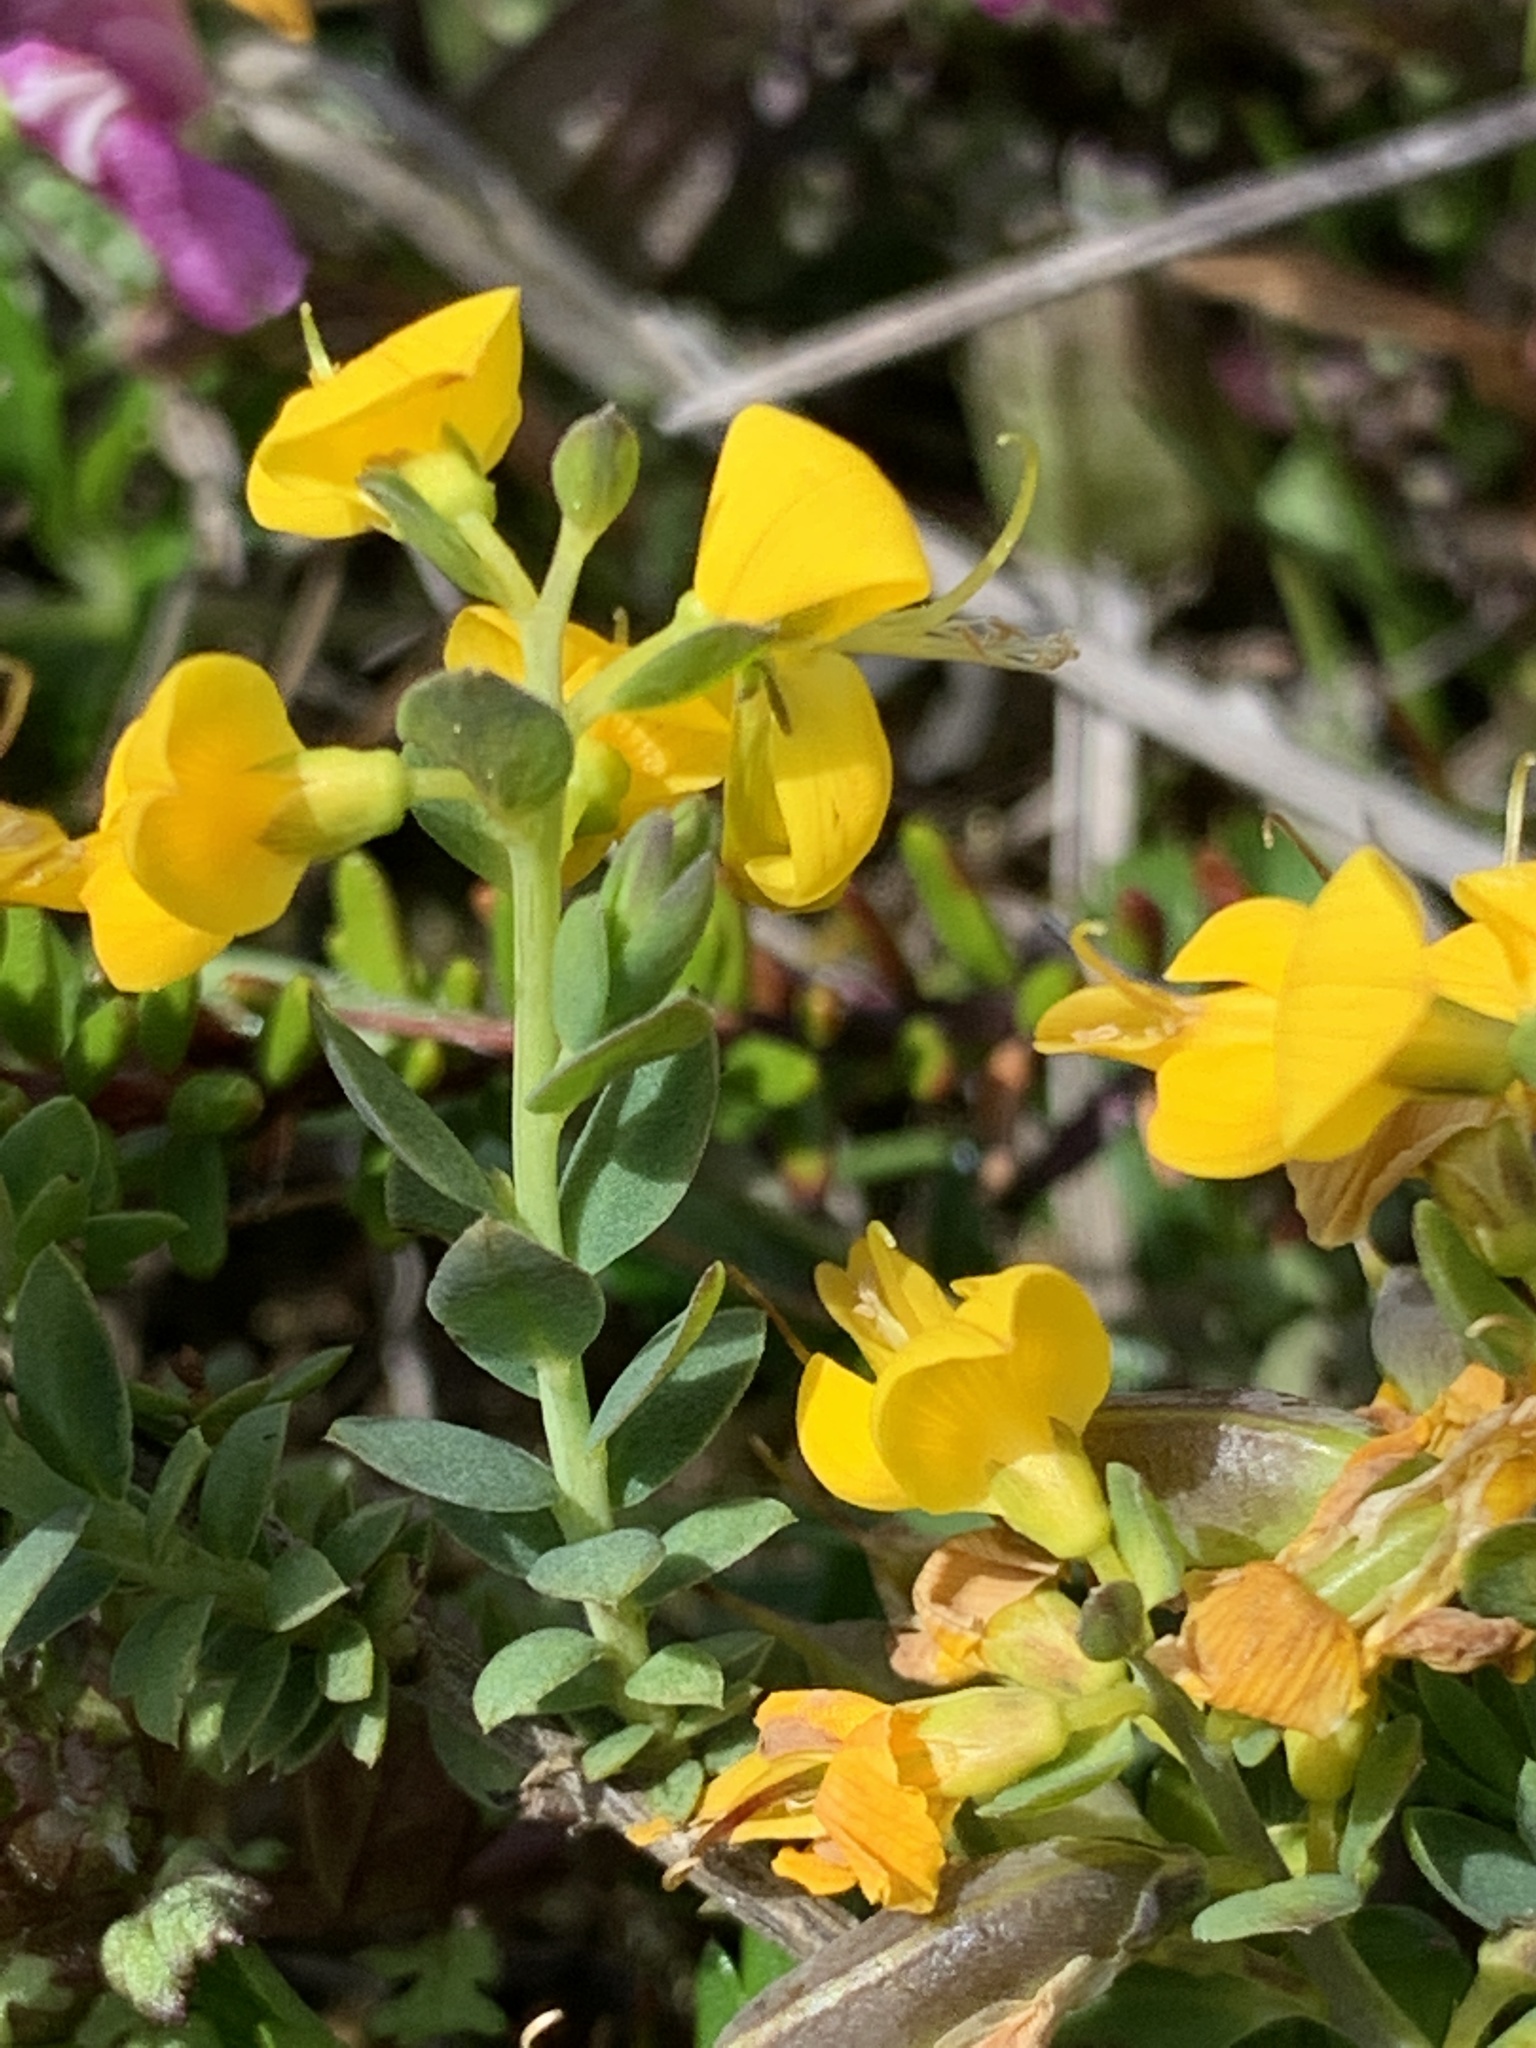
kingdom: Plantae
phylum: Tracheophyta
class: Magnoliopsida
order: Fabales
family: Fabaceae
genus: Genista
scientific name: Genista anglica
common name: Petty whin
